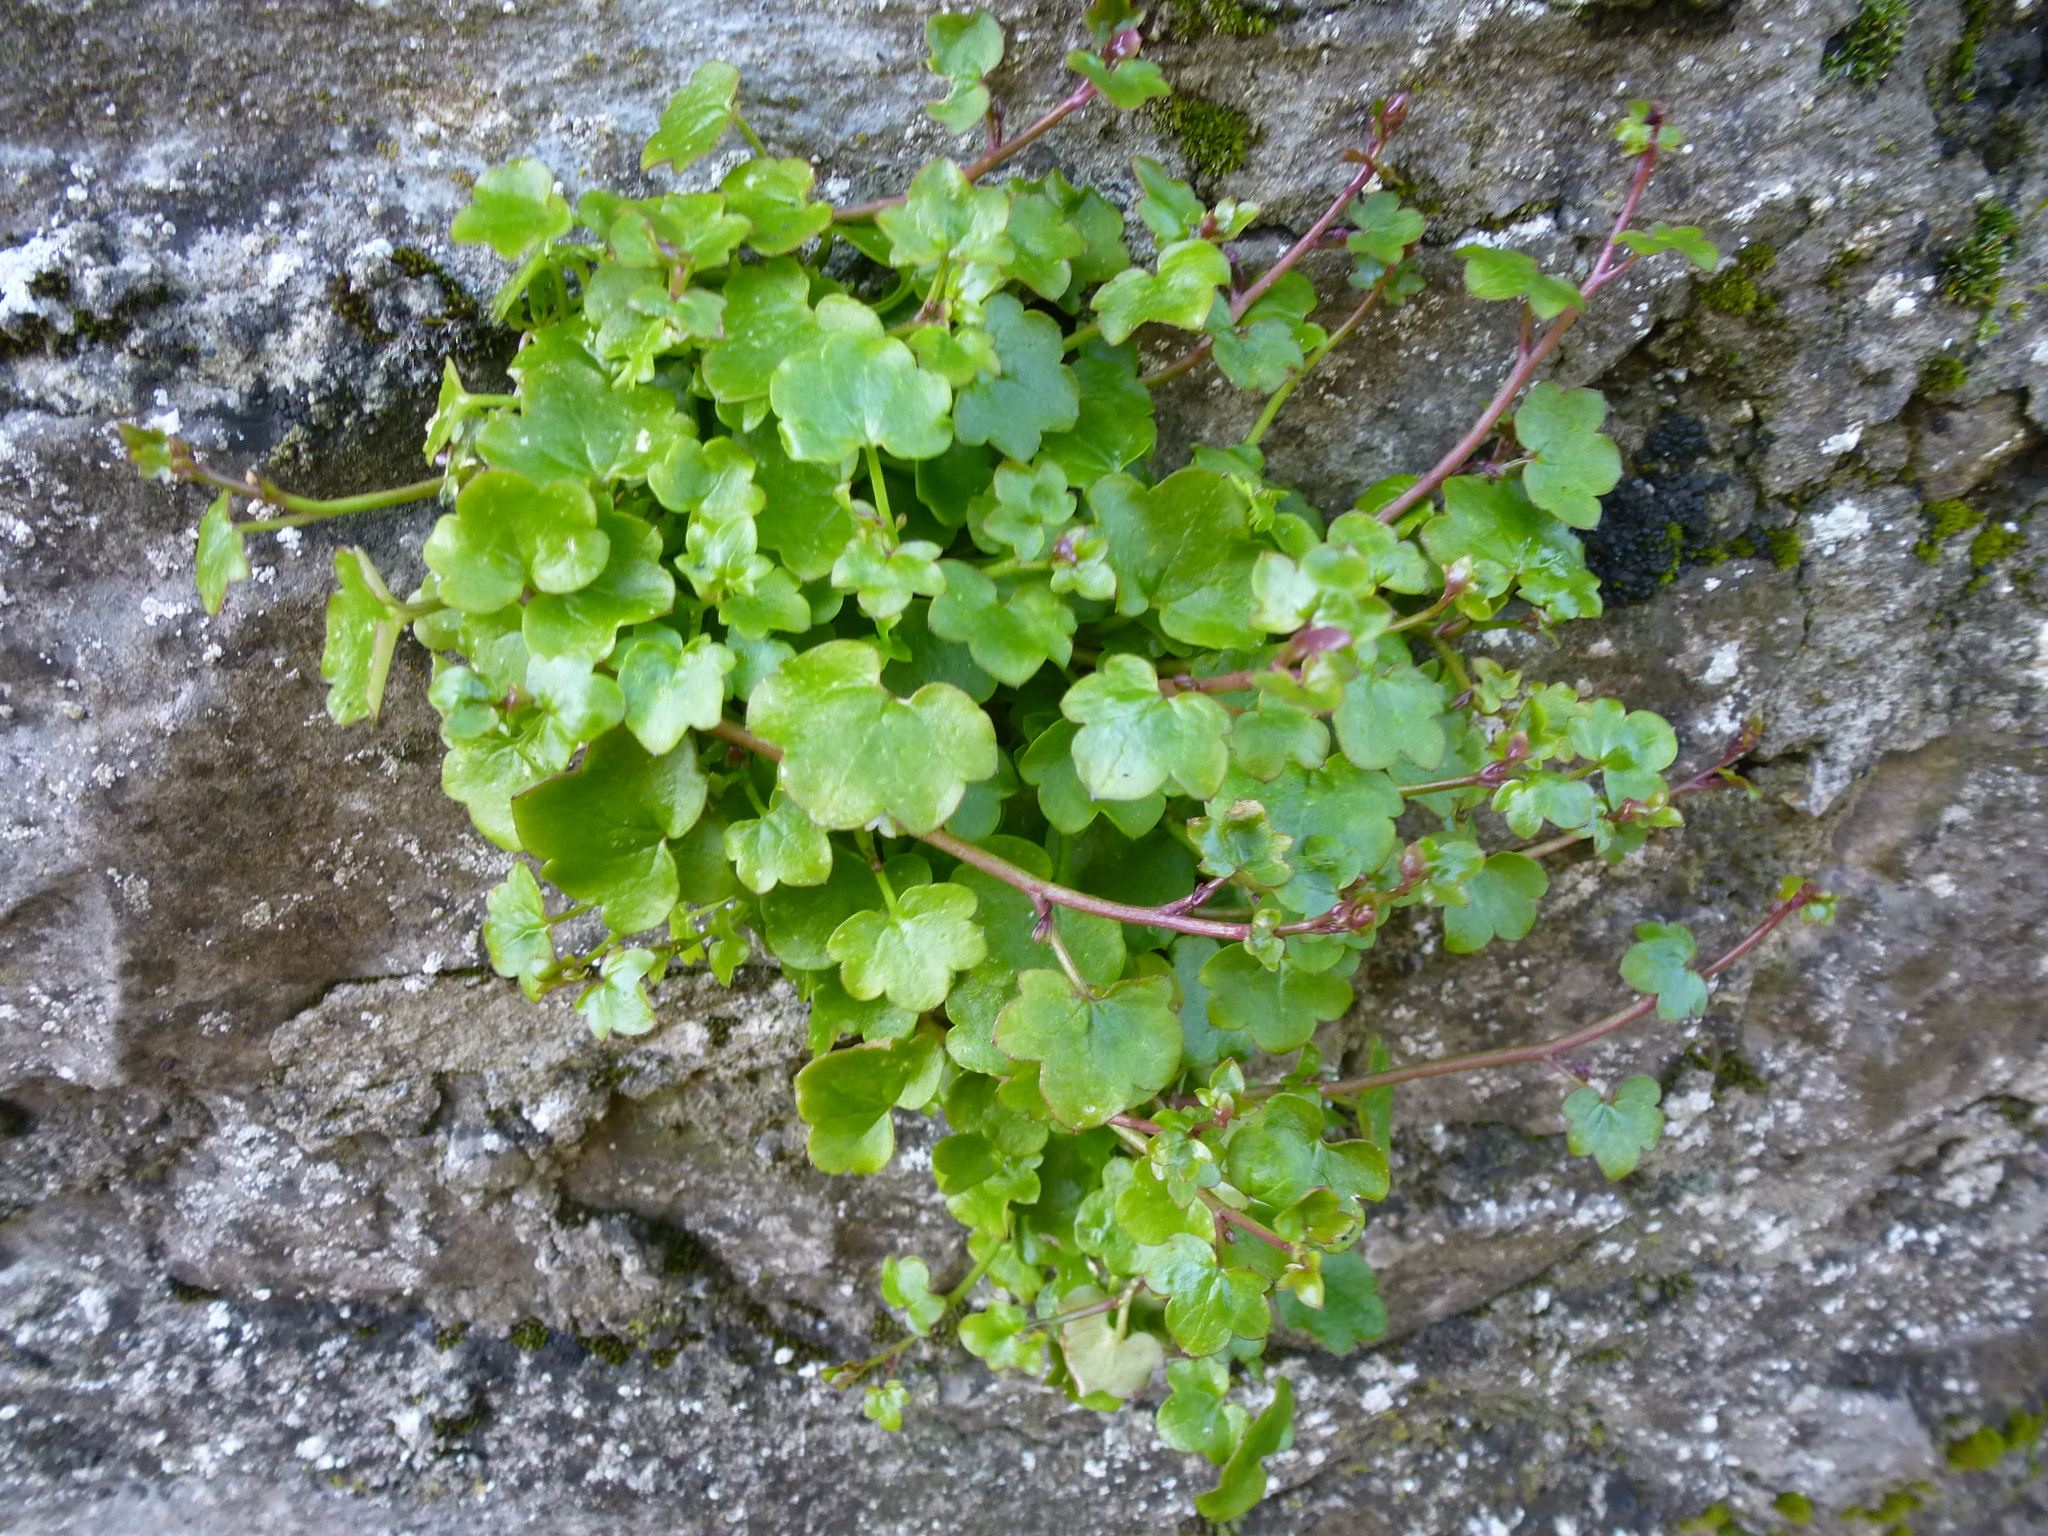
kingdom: Plantae
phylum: Tracheophyta
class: Magnoliopsida
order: Lamiales
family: Plantaginaceae
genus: Cymbalaria
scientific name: Cymbalaria muralis
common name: Ivy-leaved toadflax
